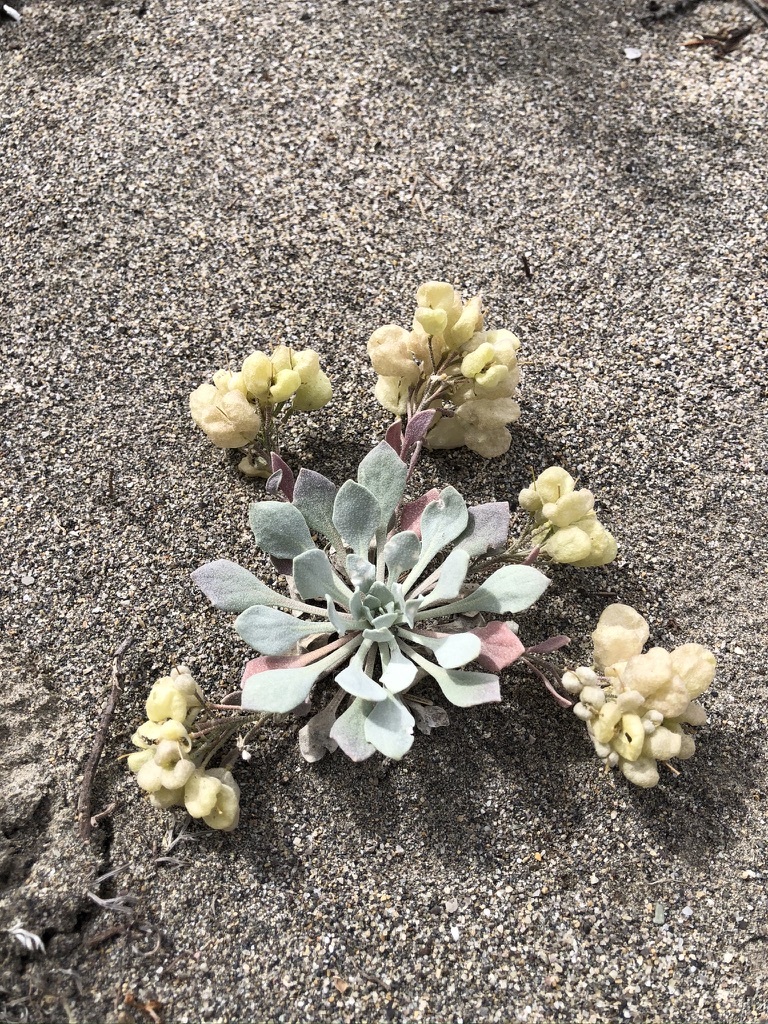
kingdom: Plantae
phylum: Tracheophyta
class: Magnoliopsida
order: Brassicales
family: Brassicaceae
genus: Physaria
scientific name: Physaria didymocarpa
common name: Common twinpod
